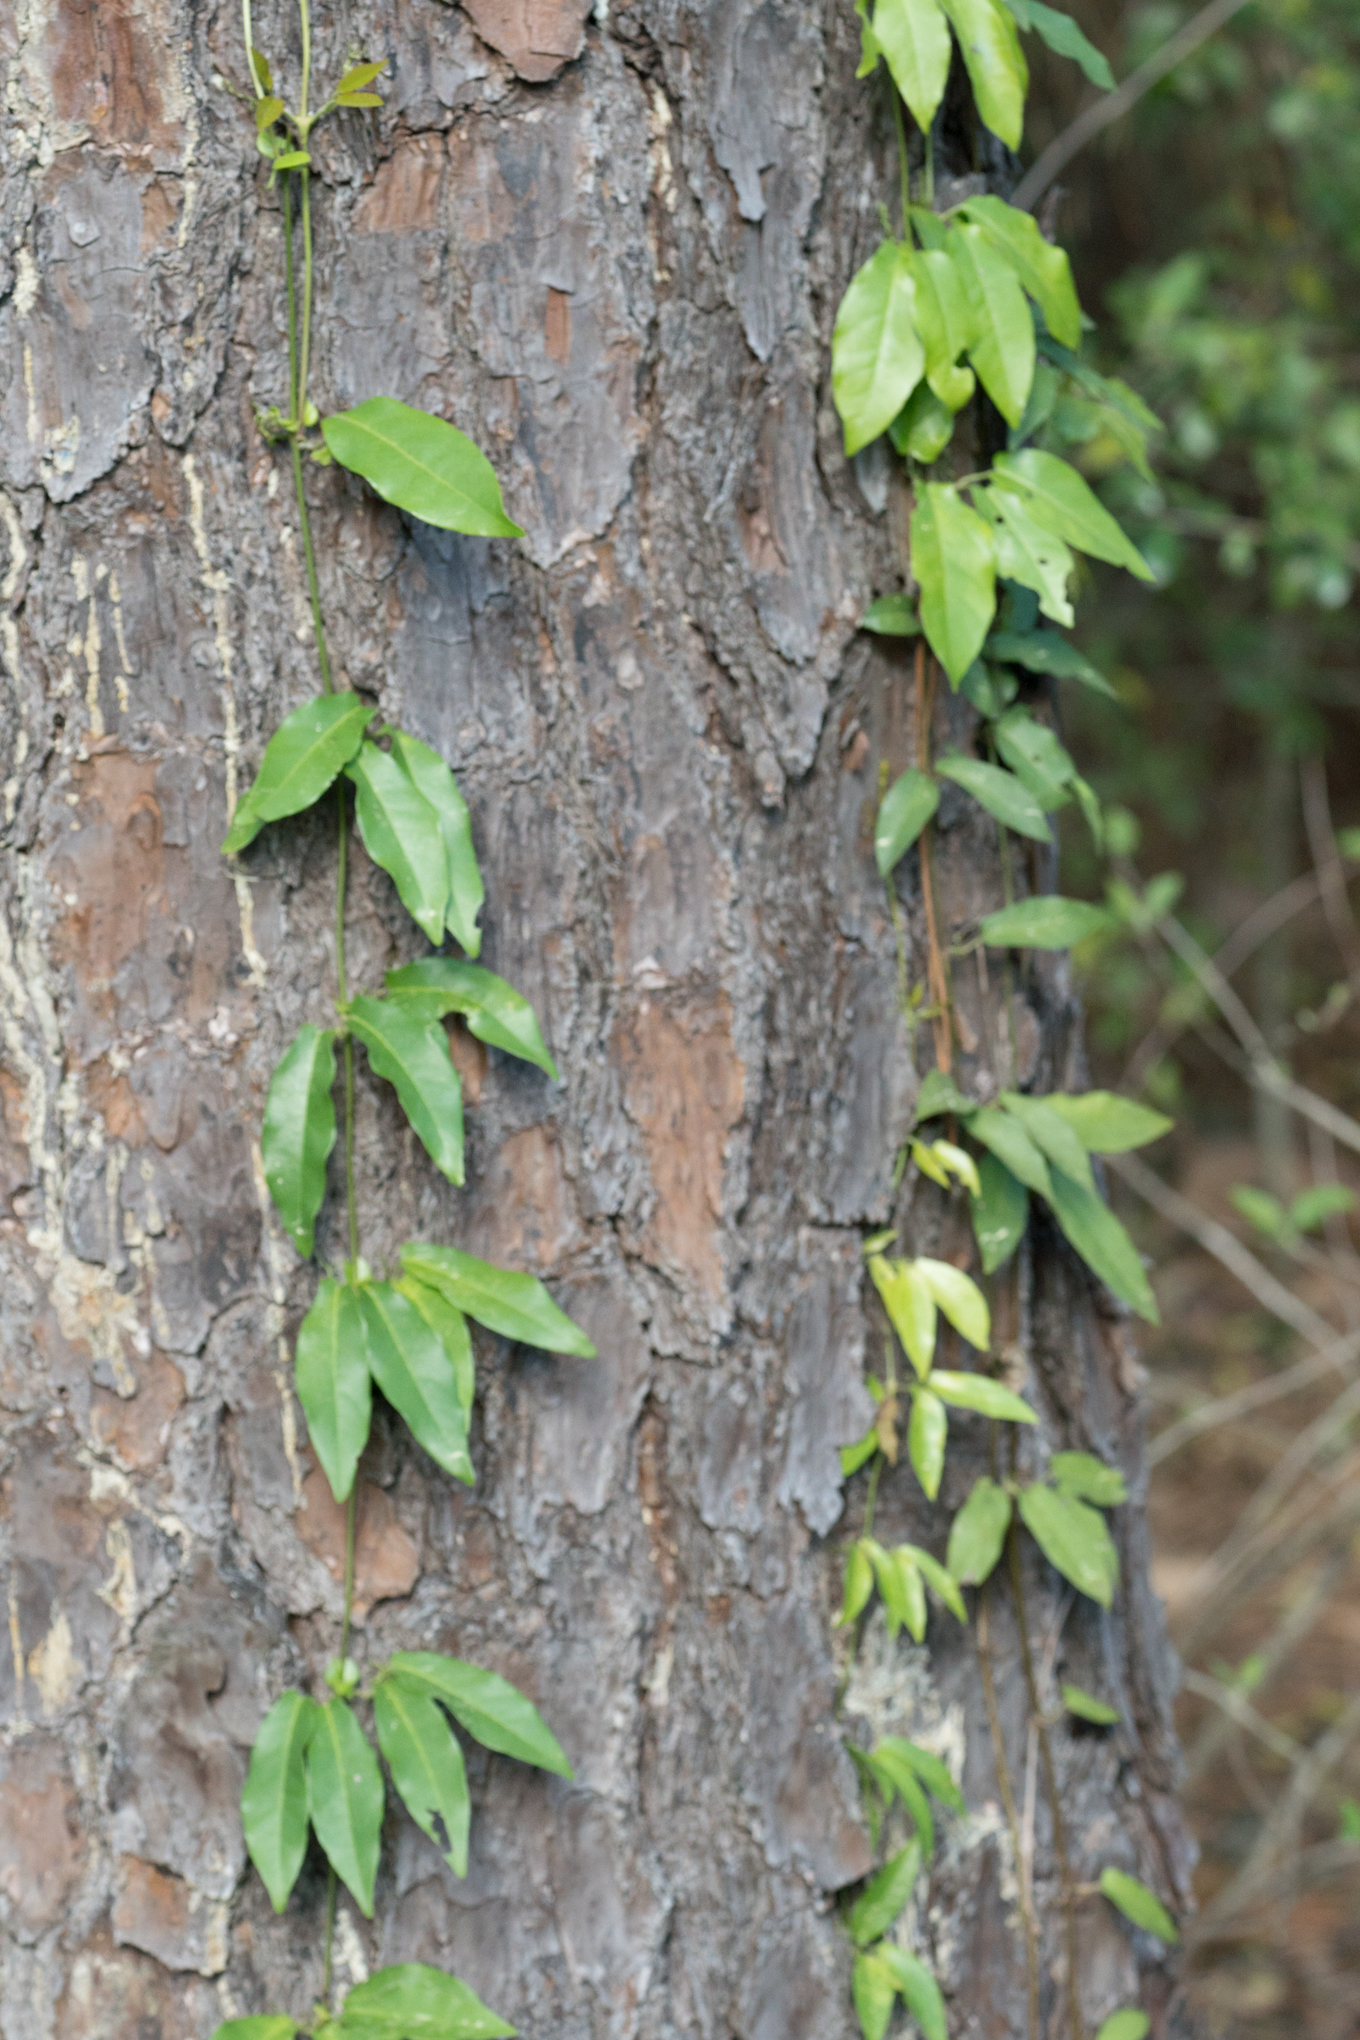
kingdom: Plantae
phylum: Tracheophyta
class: Magnoliopsida
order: Lamiales
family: Bignoniaceae
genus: Bignonia
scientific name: Bignonia capreolata
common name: Crossvine
